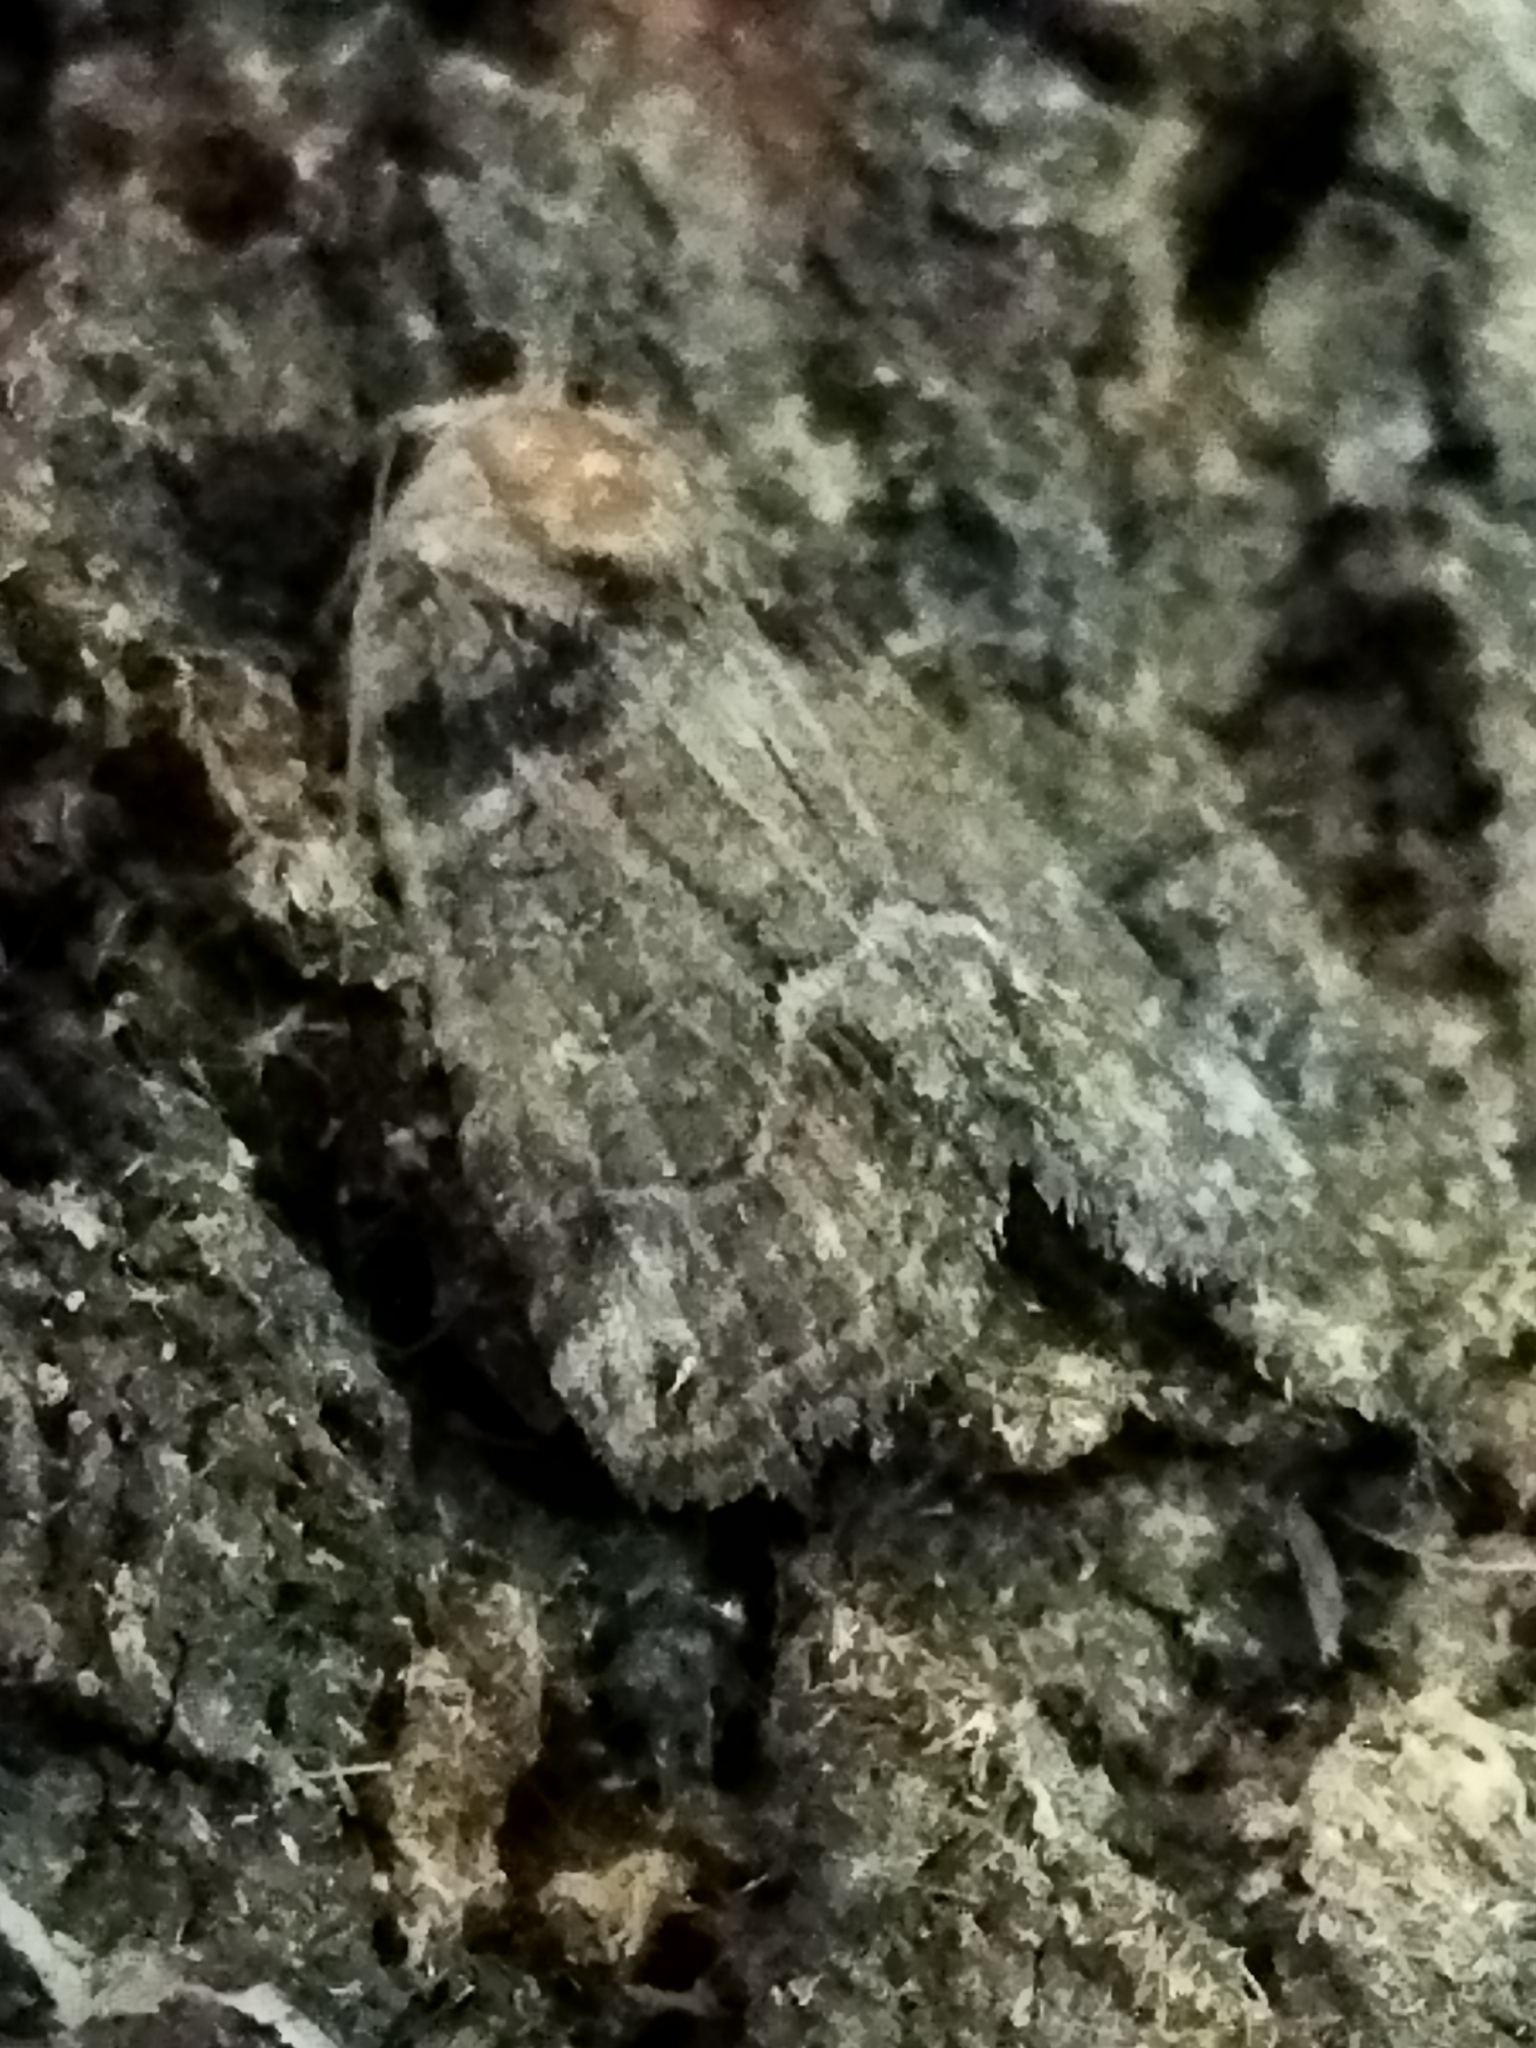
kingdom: Animalia
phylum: Arthropoda
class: Insecta
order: Lepidoptera
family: Noctuidae
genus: Bryophila
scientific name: Bryophila tephrocharis
